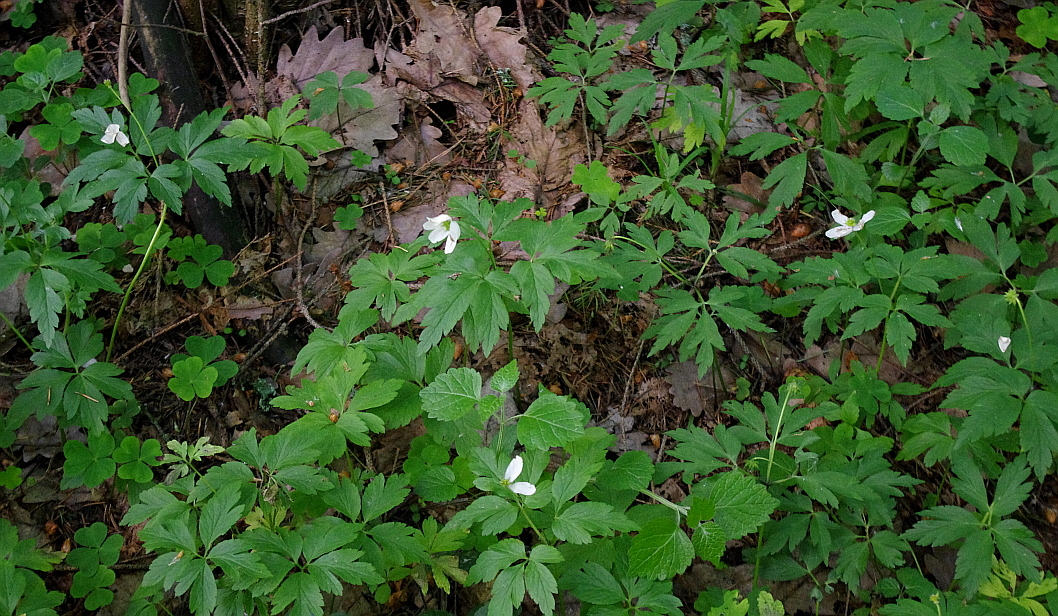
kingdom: Plantae
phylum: Tracheophyta
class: Magnoliopsida
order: Ranunculales
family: Ranunculaceae
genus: Anemone
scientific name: Anemone nemorosa
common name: Wood anemone
